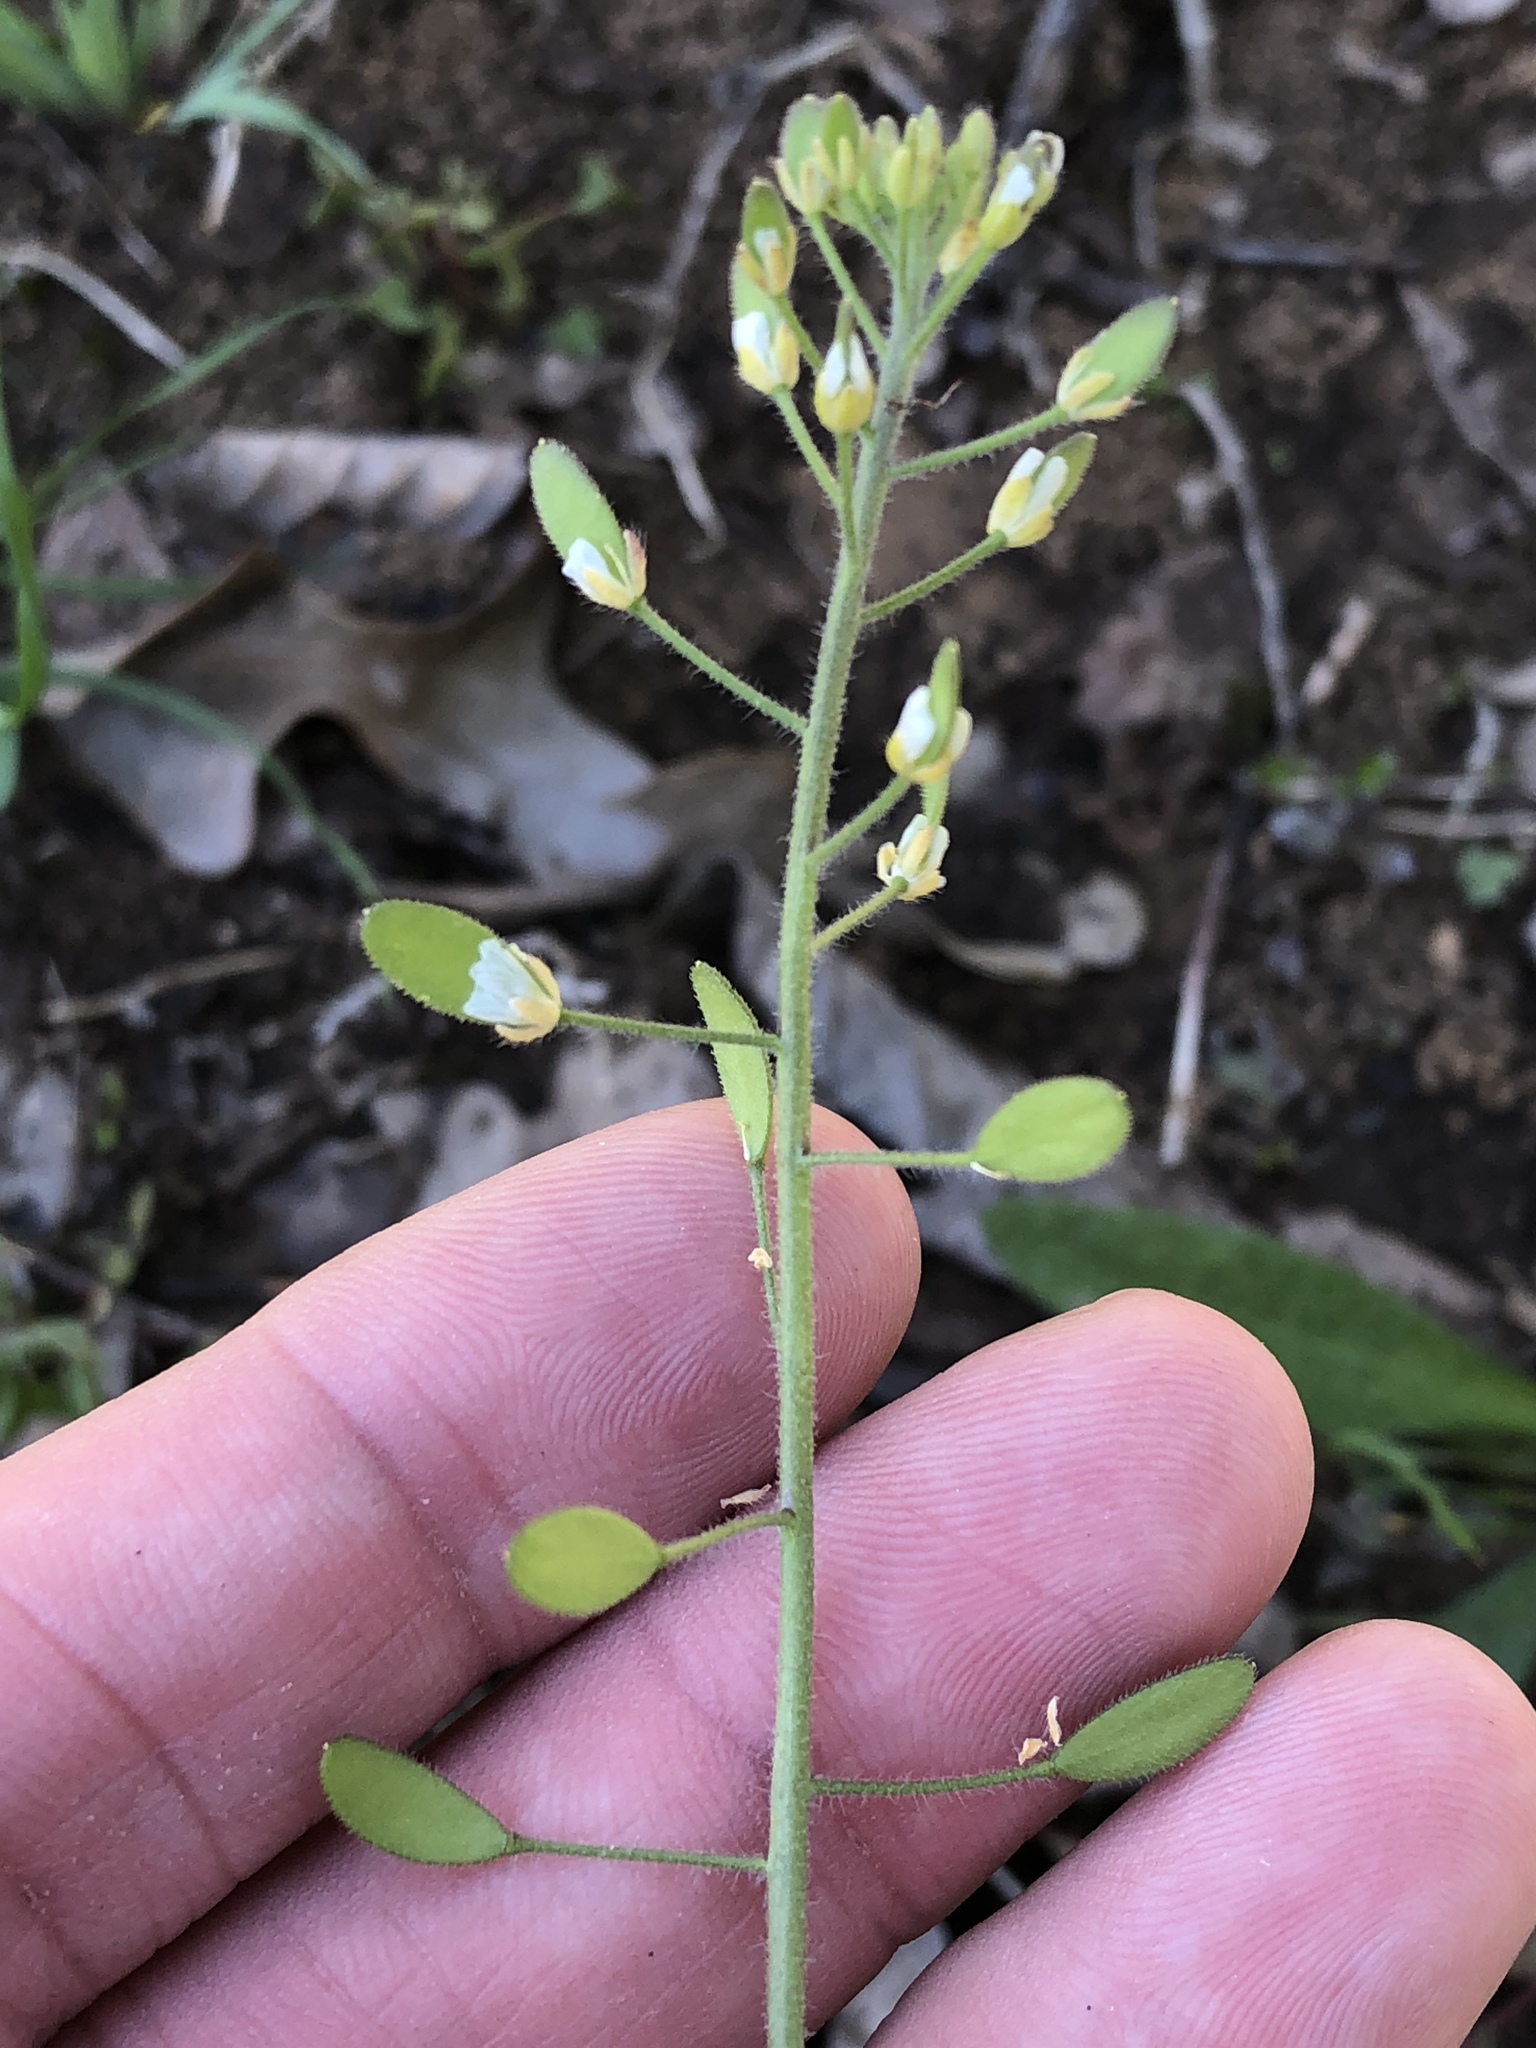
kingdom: Plantae
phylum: Tracheophyta
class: Magnoliopsida
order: Brassicales
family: Brassicaceae
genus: Tomostima
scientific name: Tomostima platycarpa
